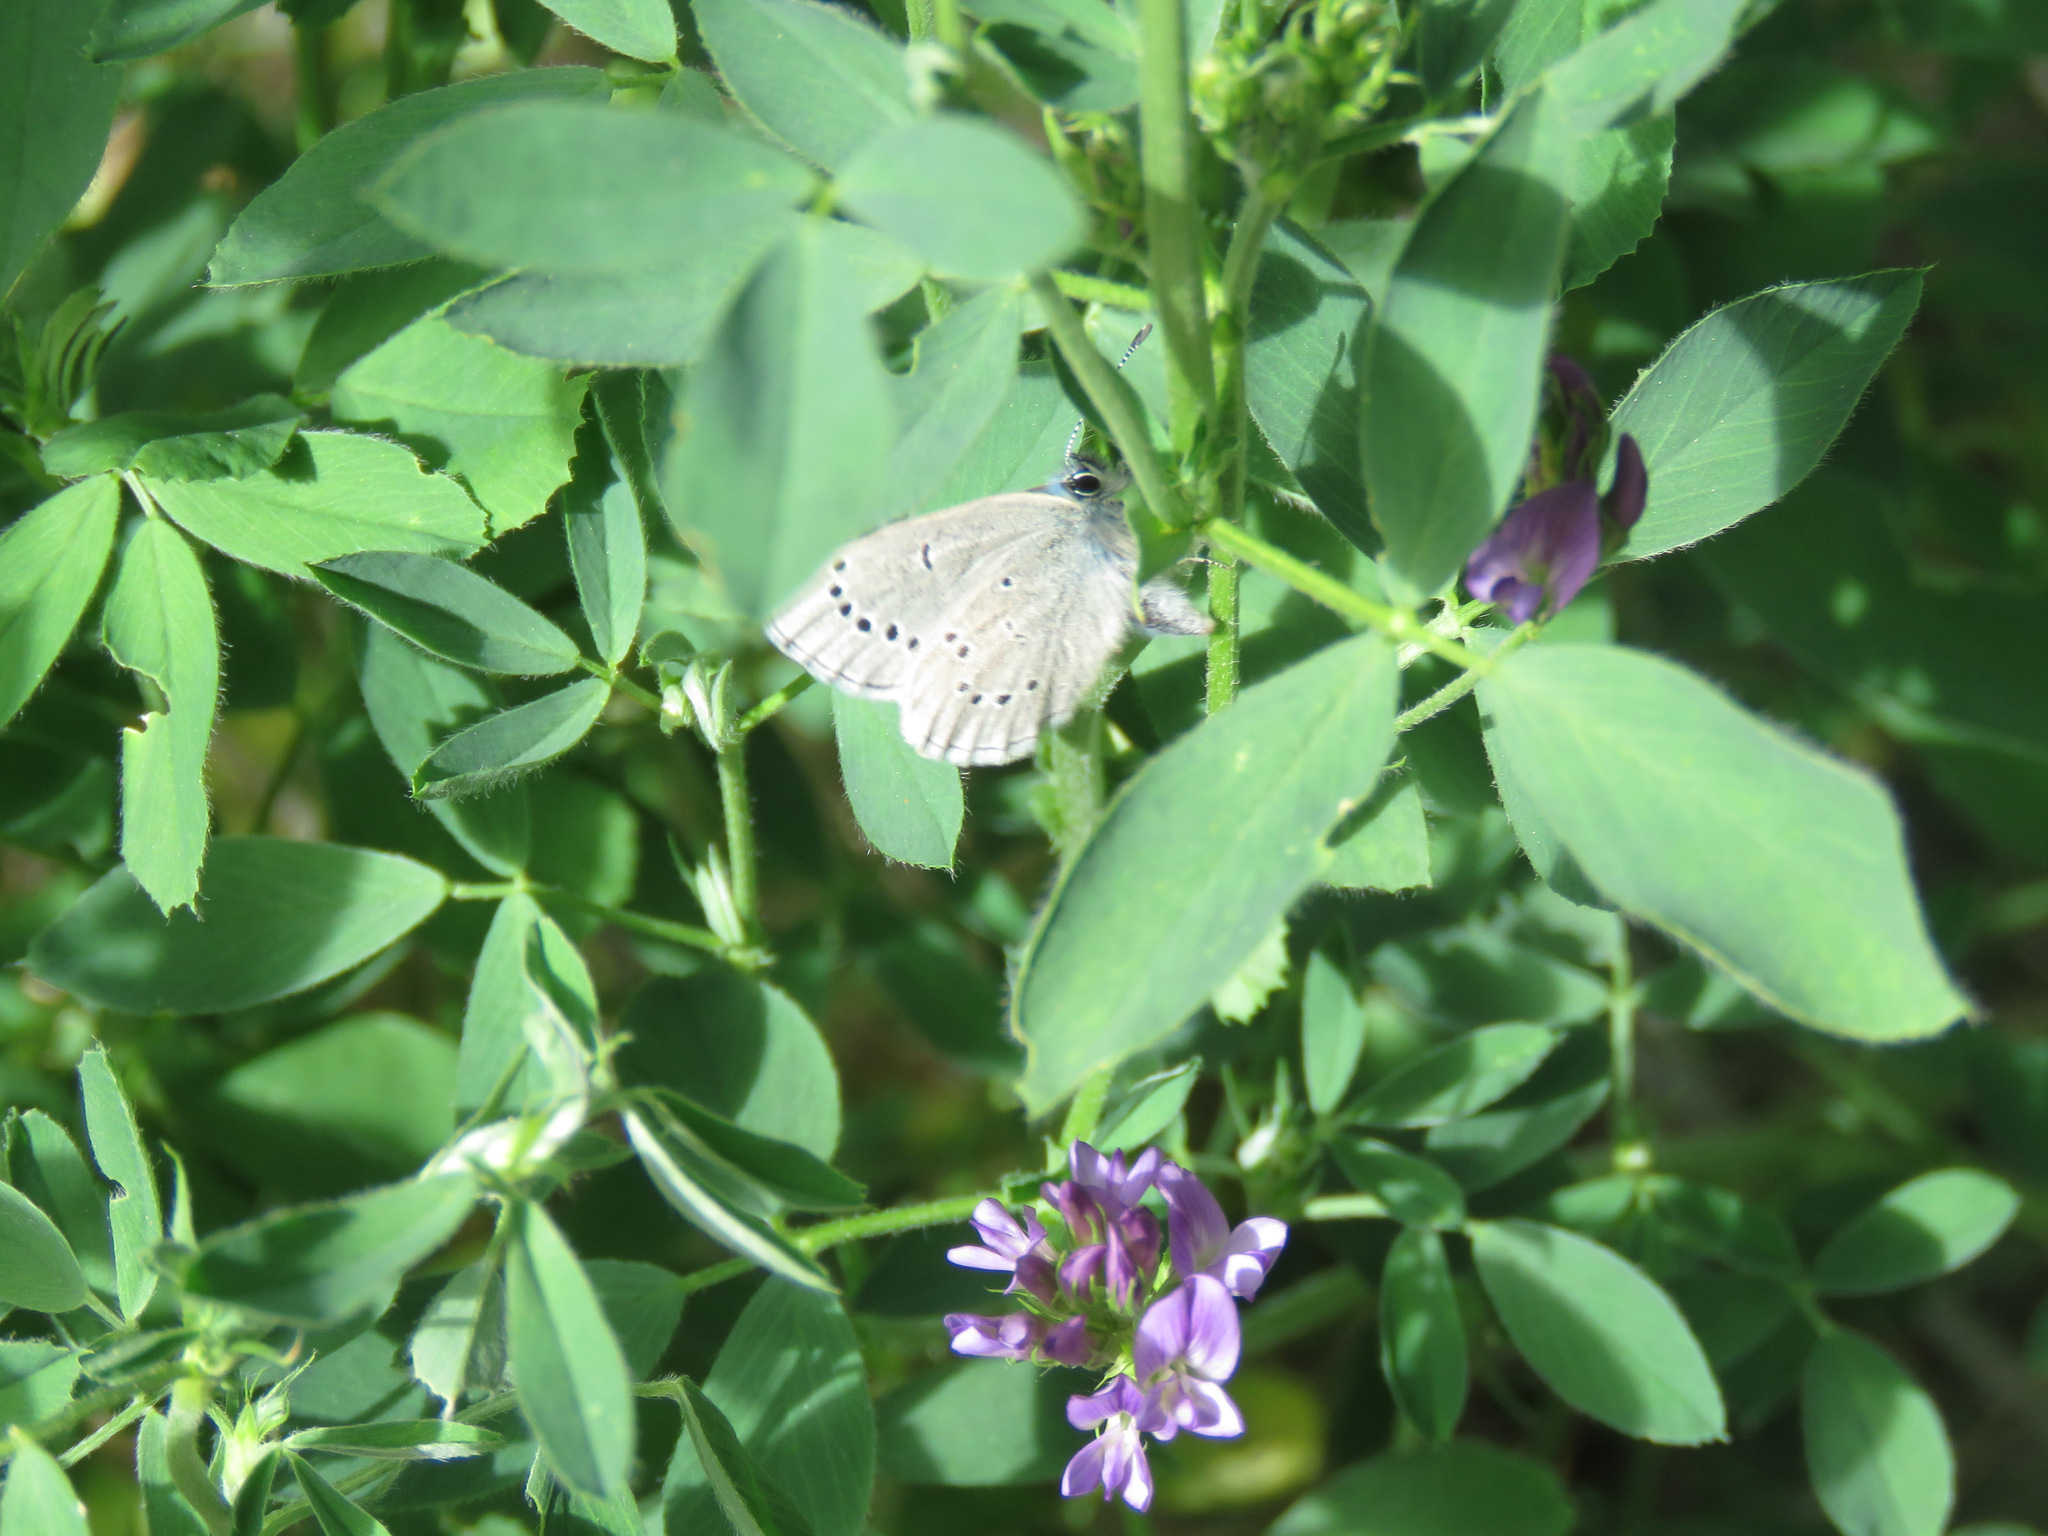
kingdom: Animalia
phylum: Arthropoda
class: Insecta
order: Lepidoptera
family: Lycaenidae
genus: Glaucopsyche
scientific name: Glaucopsyche lygdamus
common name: Silvery blue
